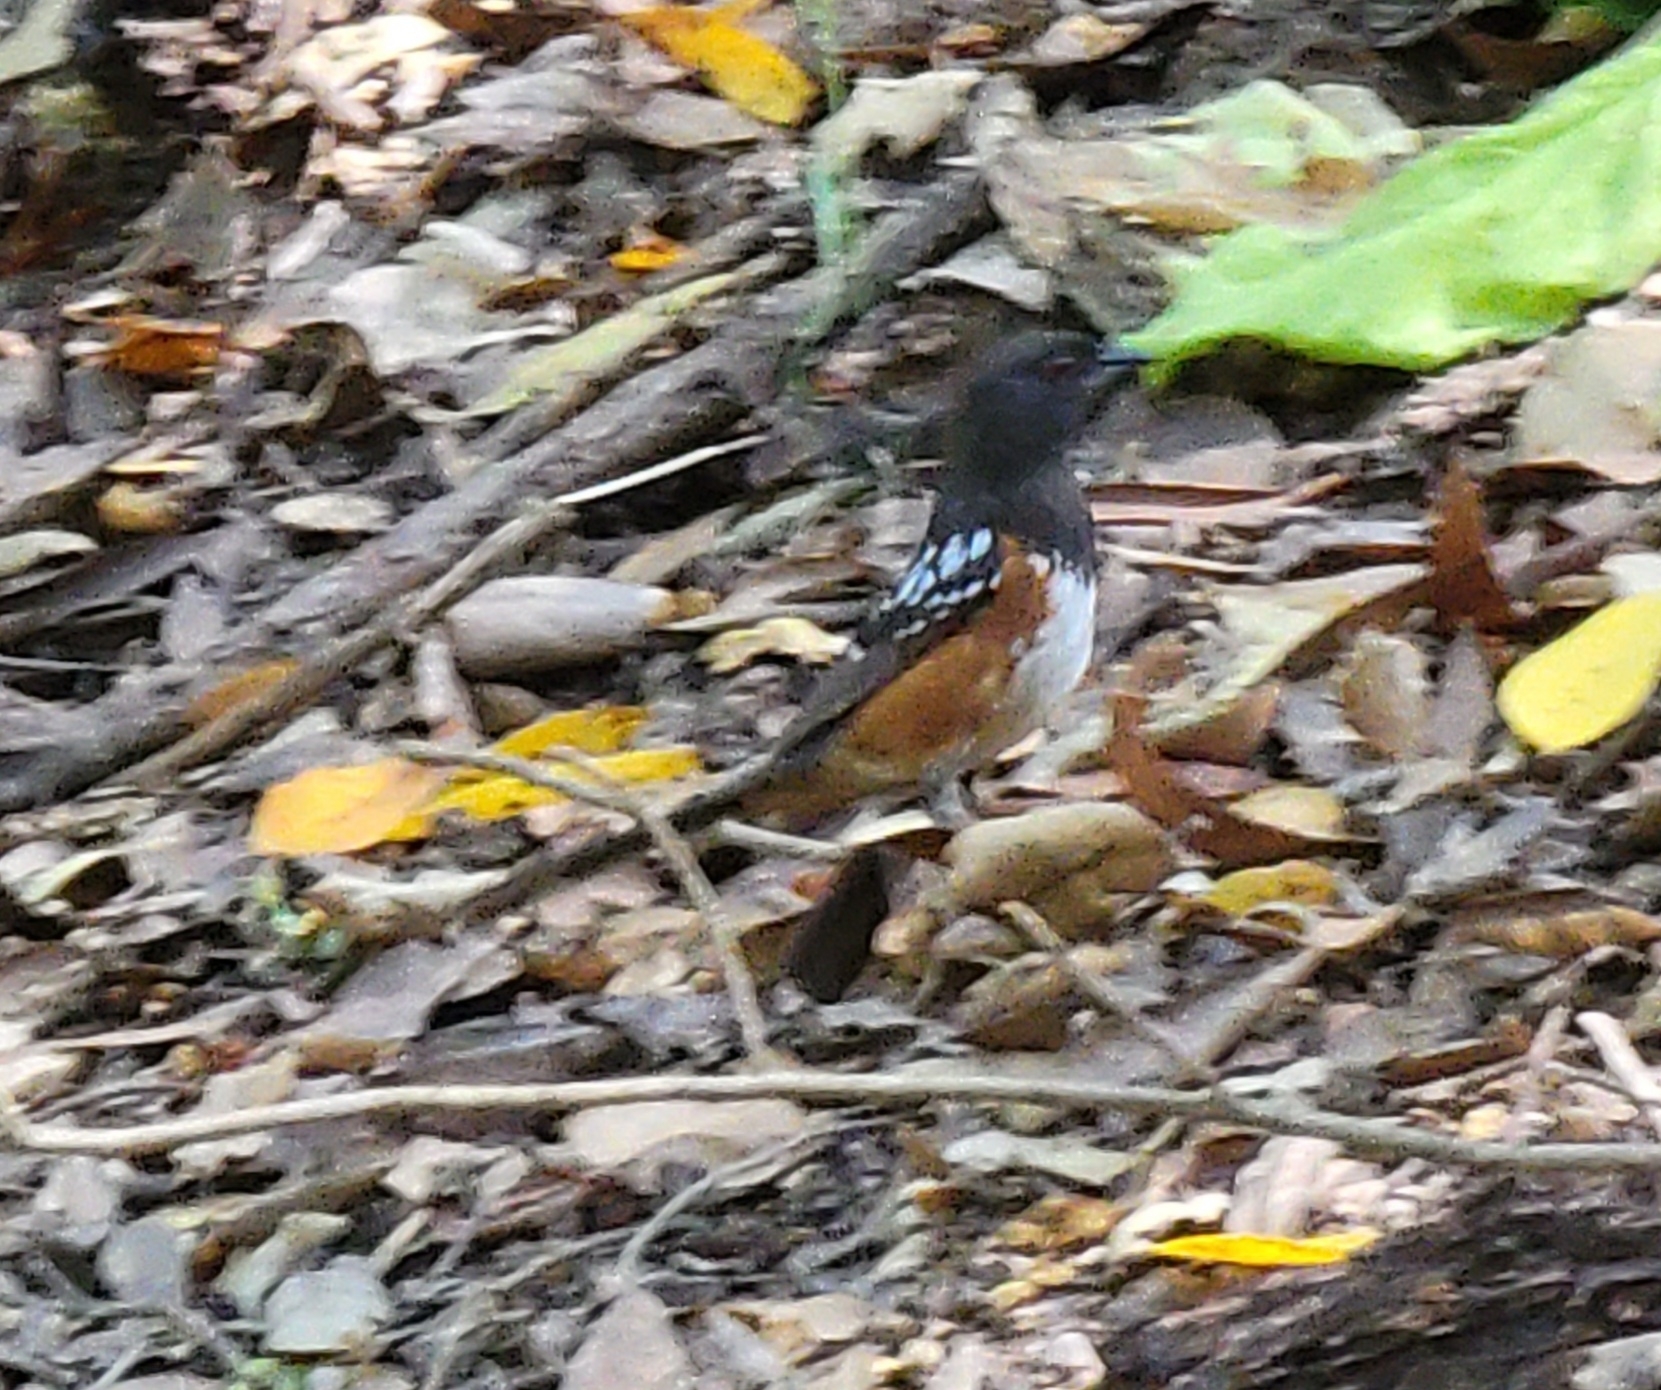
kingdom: Animalia
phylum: Chordata
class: Aves
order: Passeriformes
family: Passerellidae
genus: Pipilo
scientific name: Pipilo maculatus
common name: Spotted towhee
